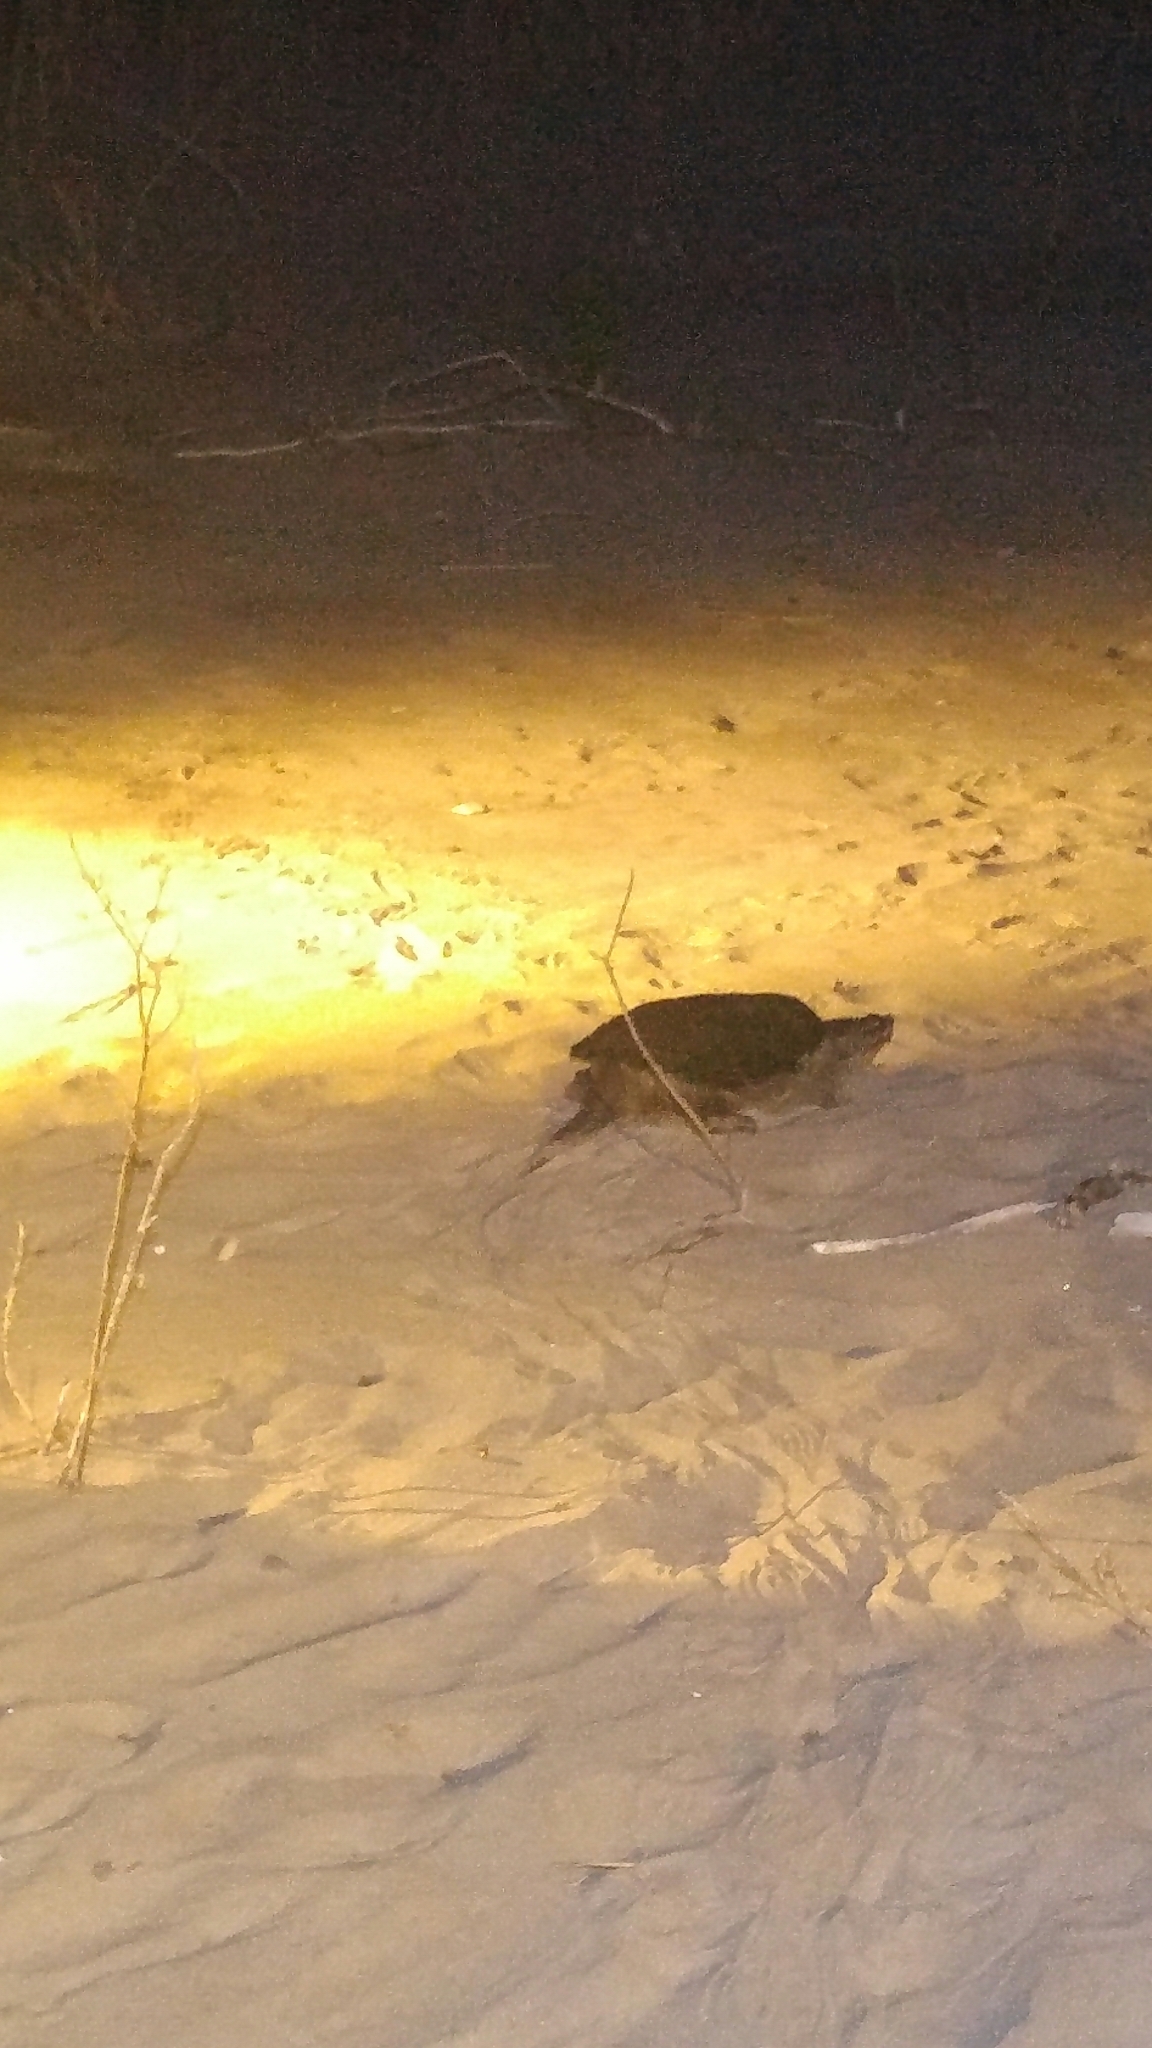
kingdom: Animalia
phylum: Chordata
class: Testudines
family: Chelydridae
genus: Chelydra
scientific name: Chelydra serpentina
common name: Common snapping turtle
